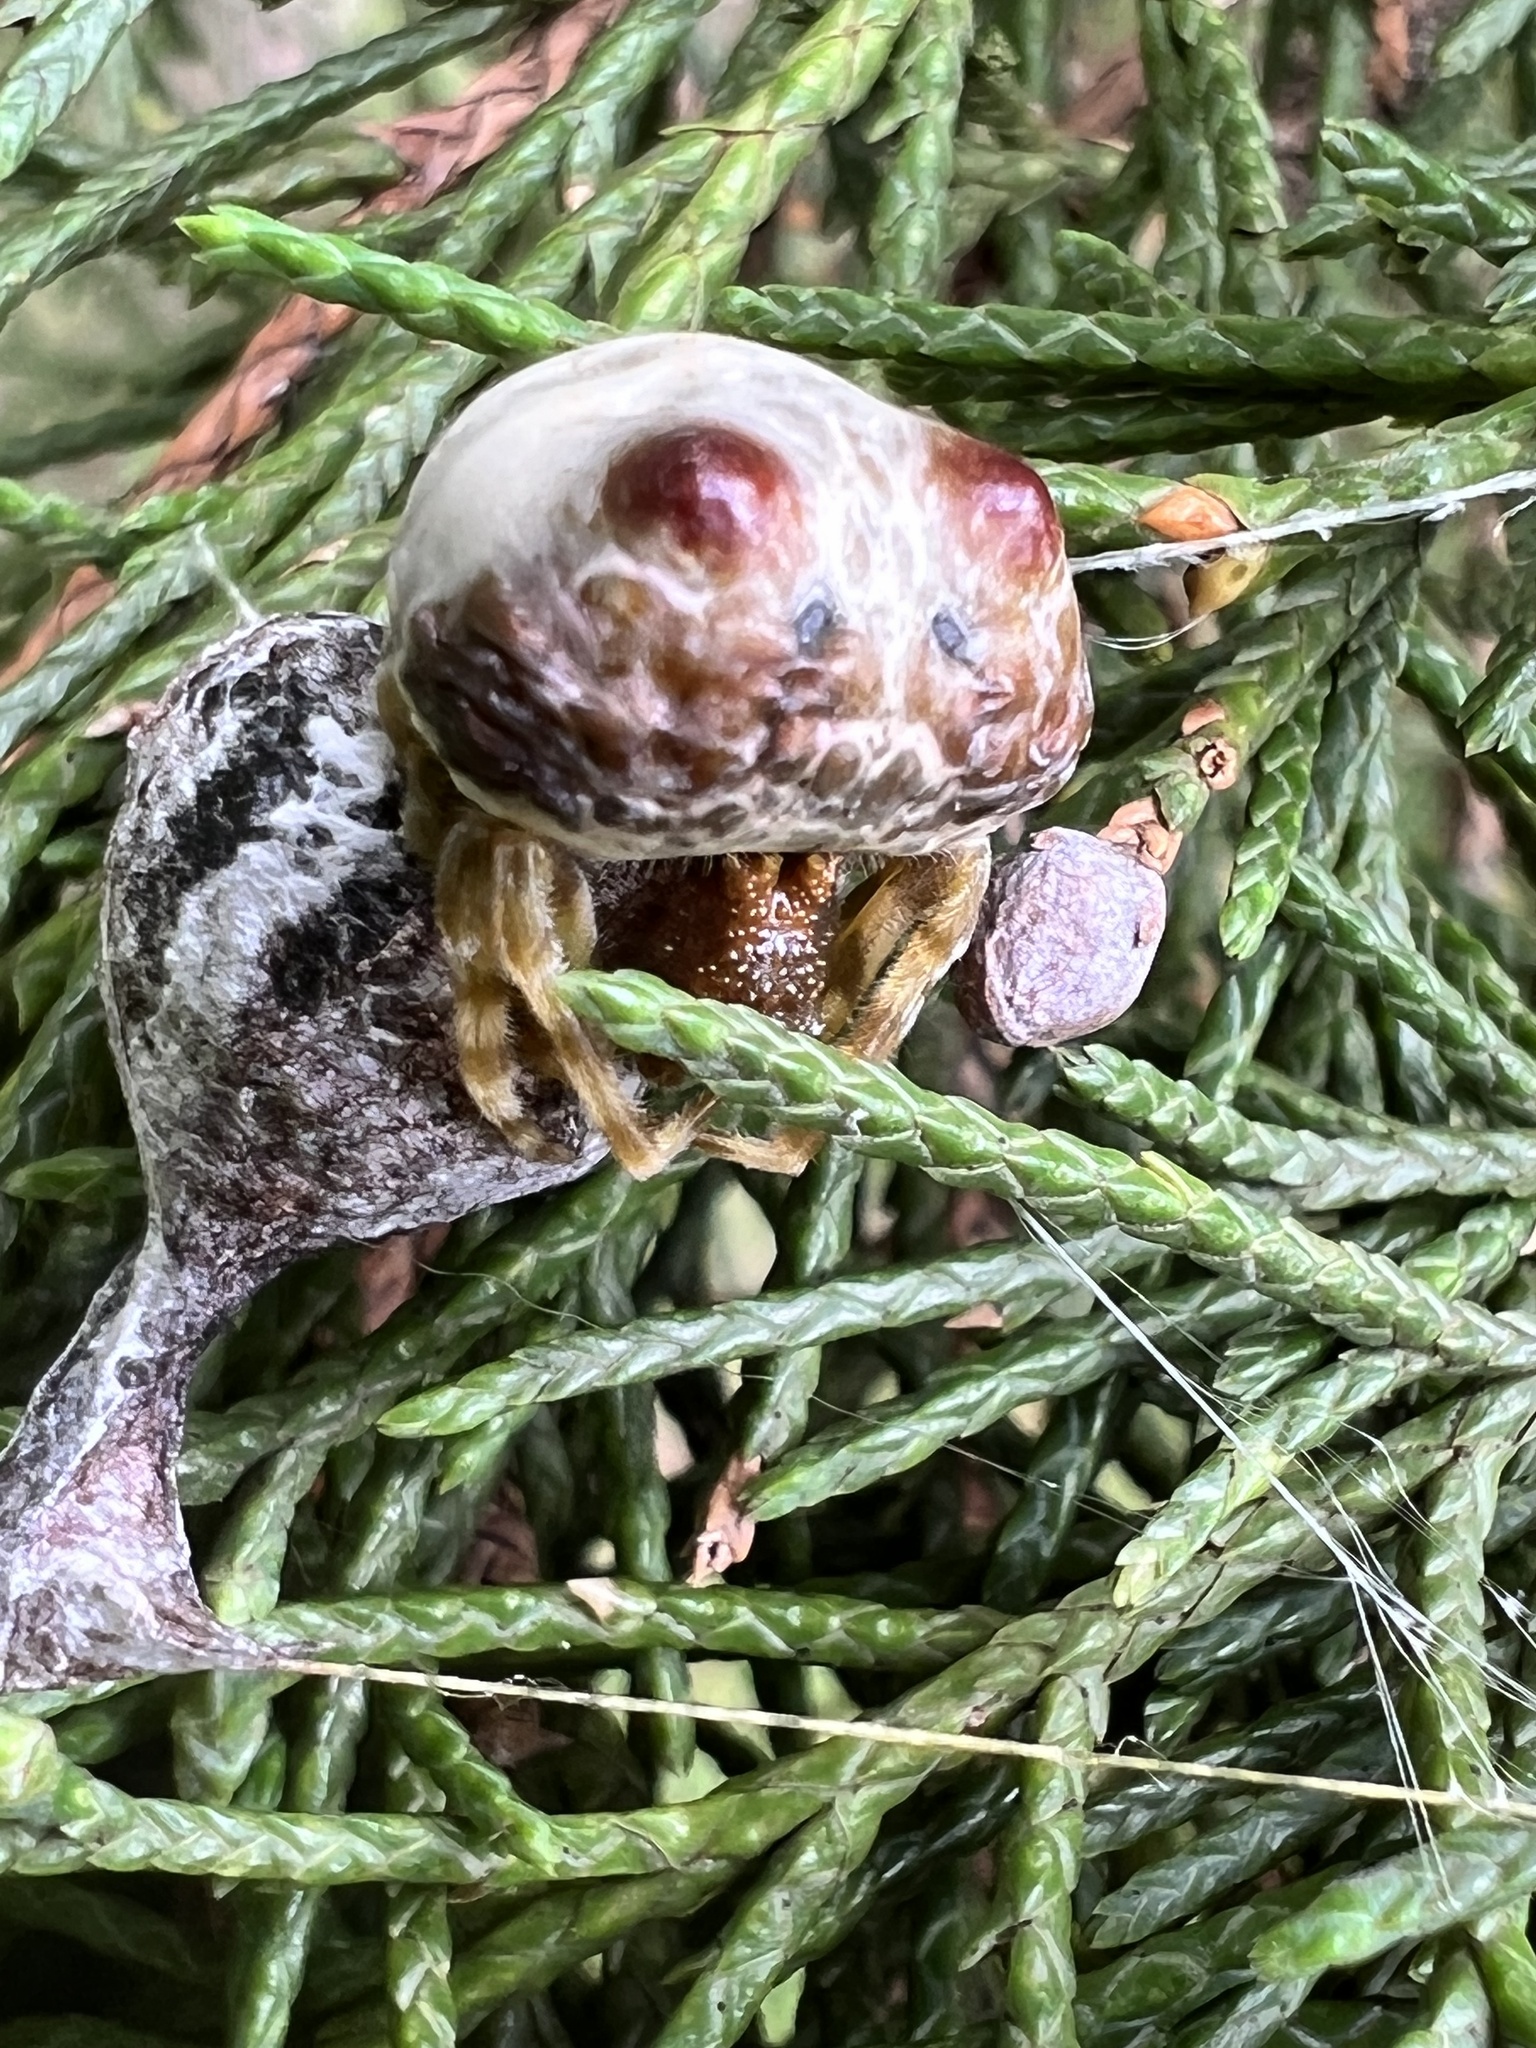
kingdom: Animalia
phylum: Arthropoda
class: Arachnida
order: Araneae
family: Araneidae
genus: Mastophora
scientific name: Mastophora hutchinsoni
